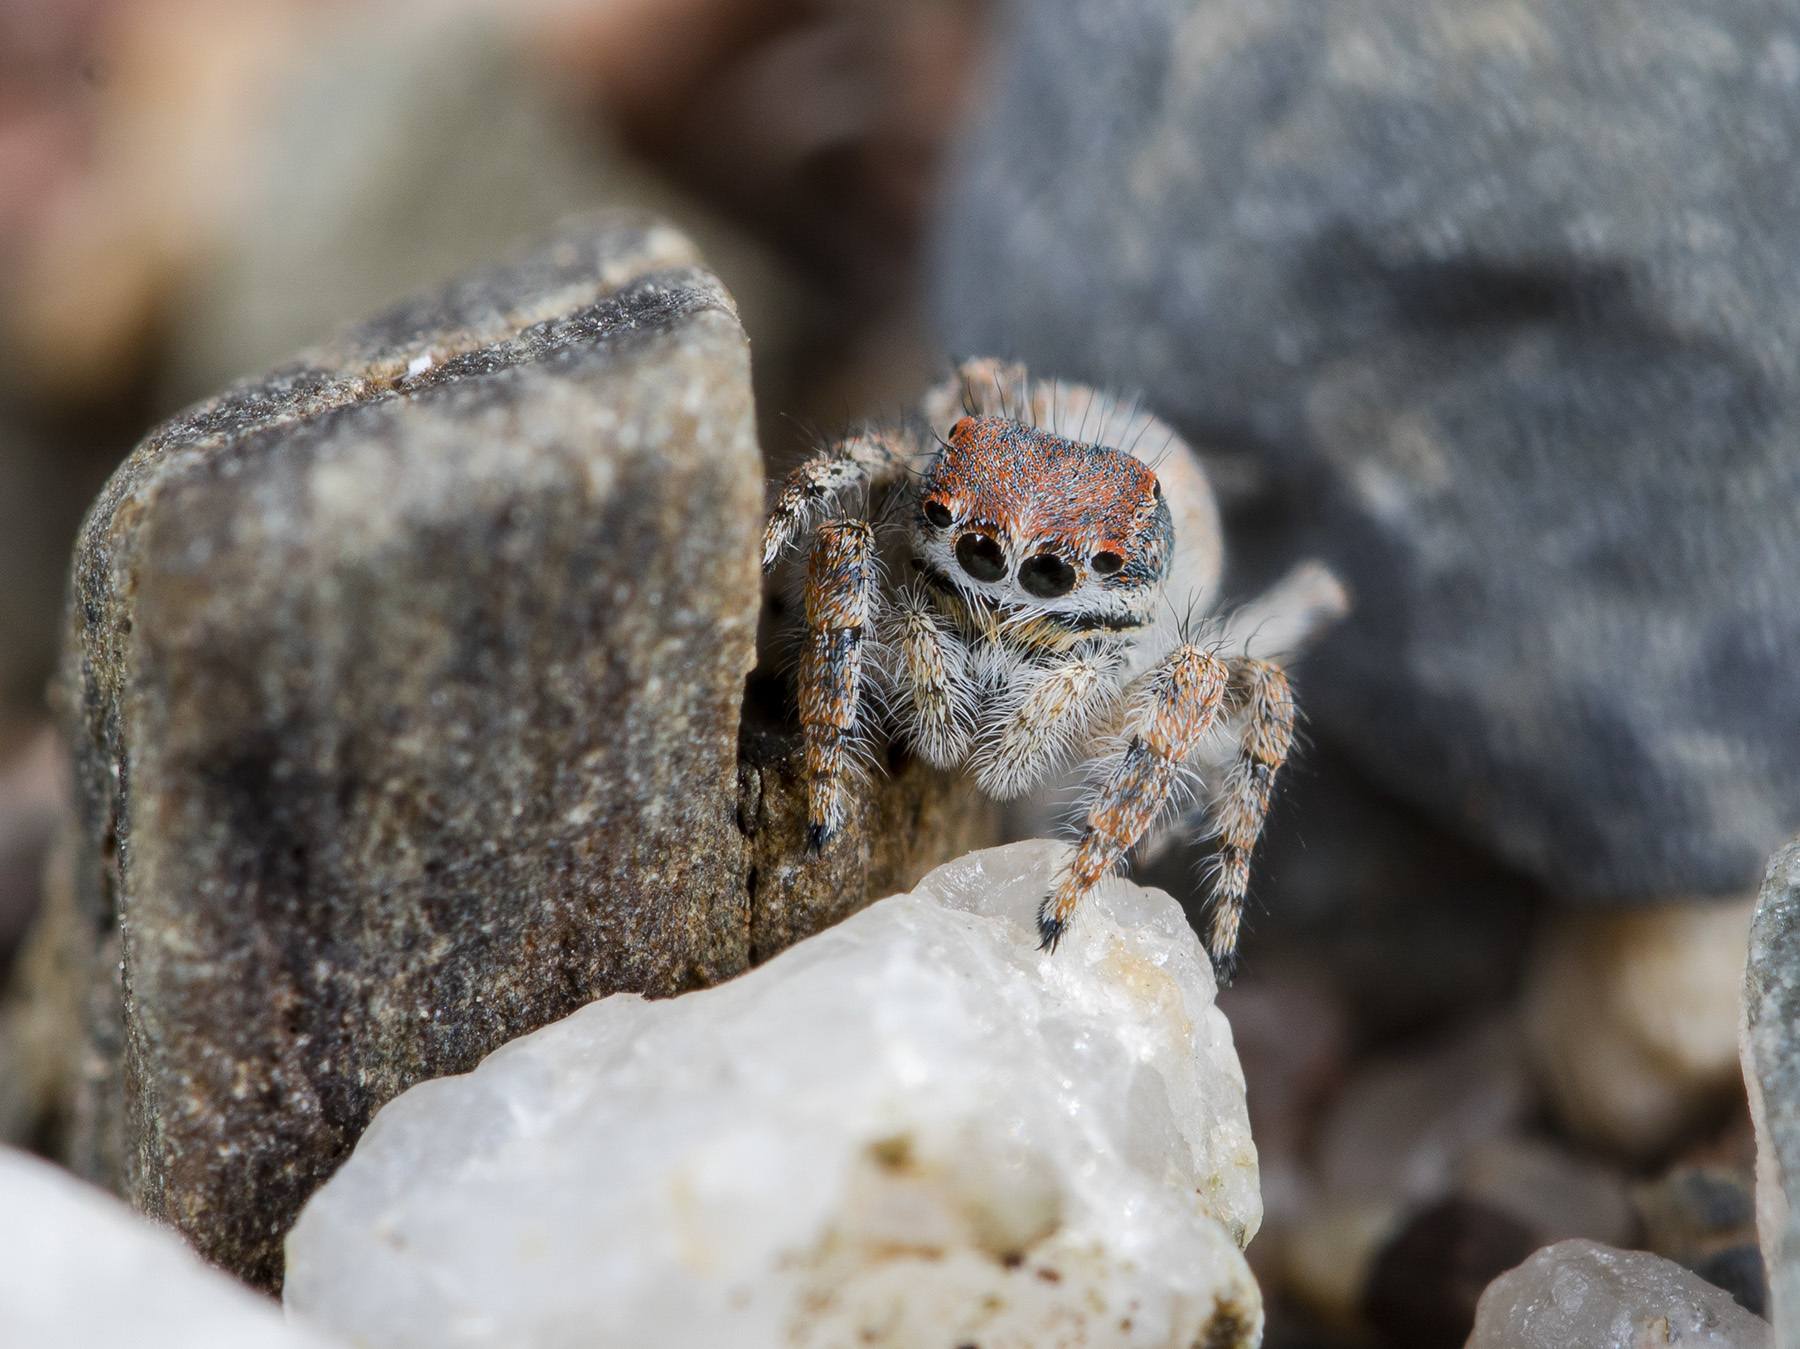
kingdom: Animalia
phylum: Arthropoda
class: Arachnida
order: Araneae
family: Salticidae
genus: Yllenus
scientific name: Yllenus zyuzini
